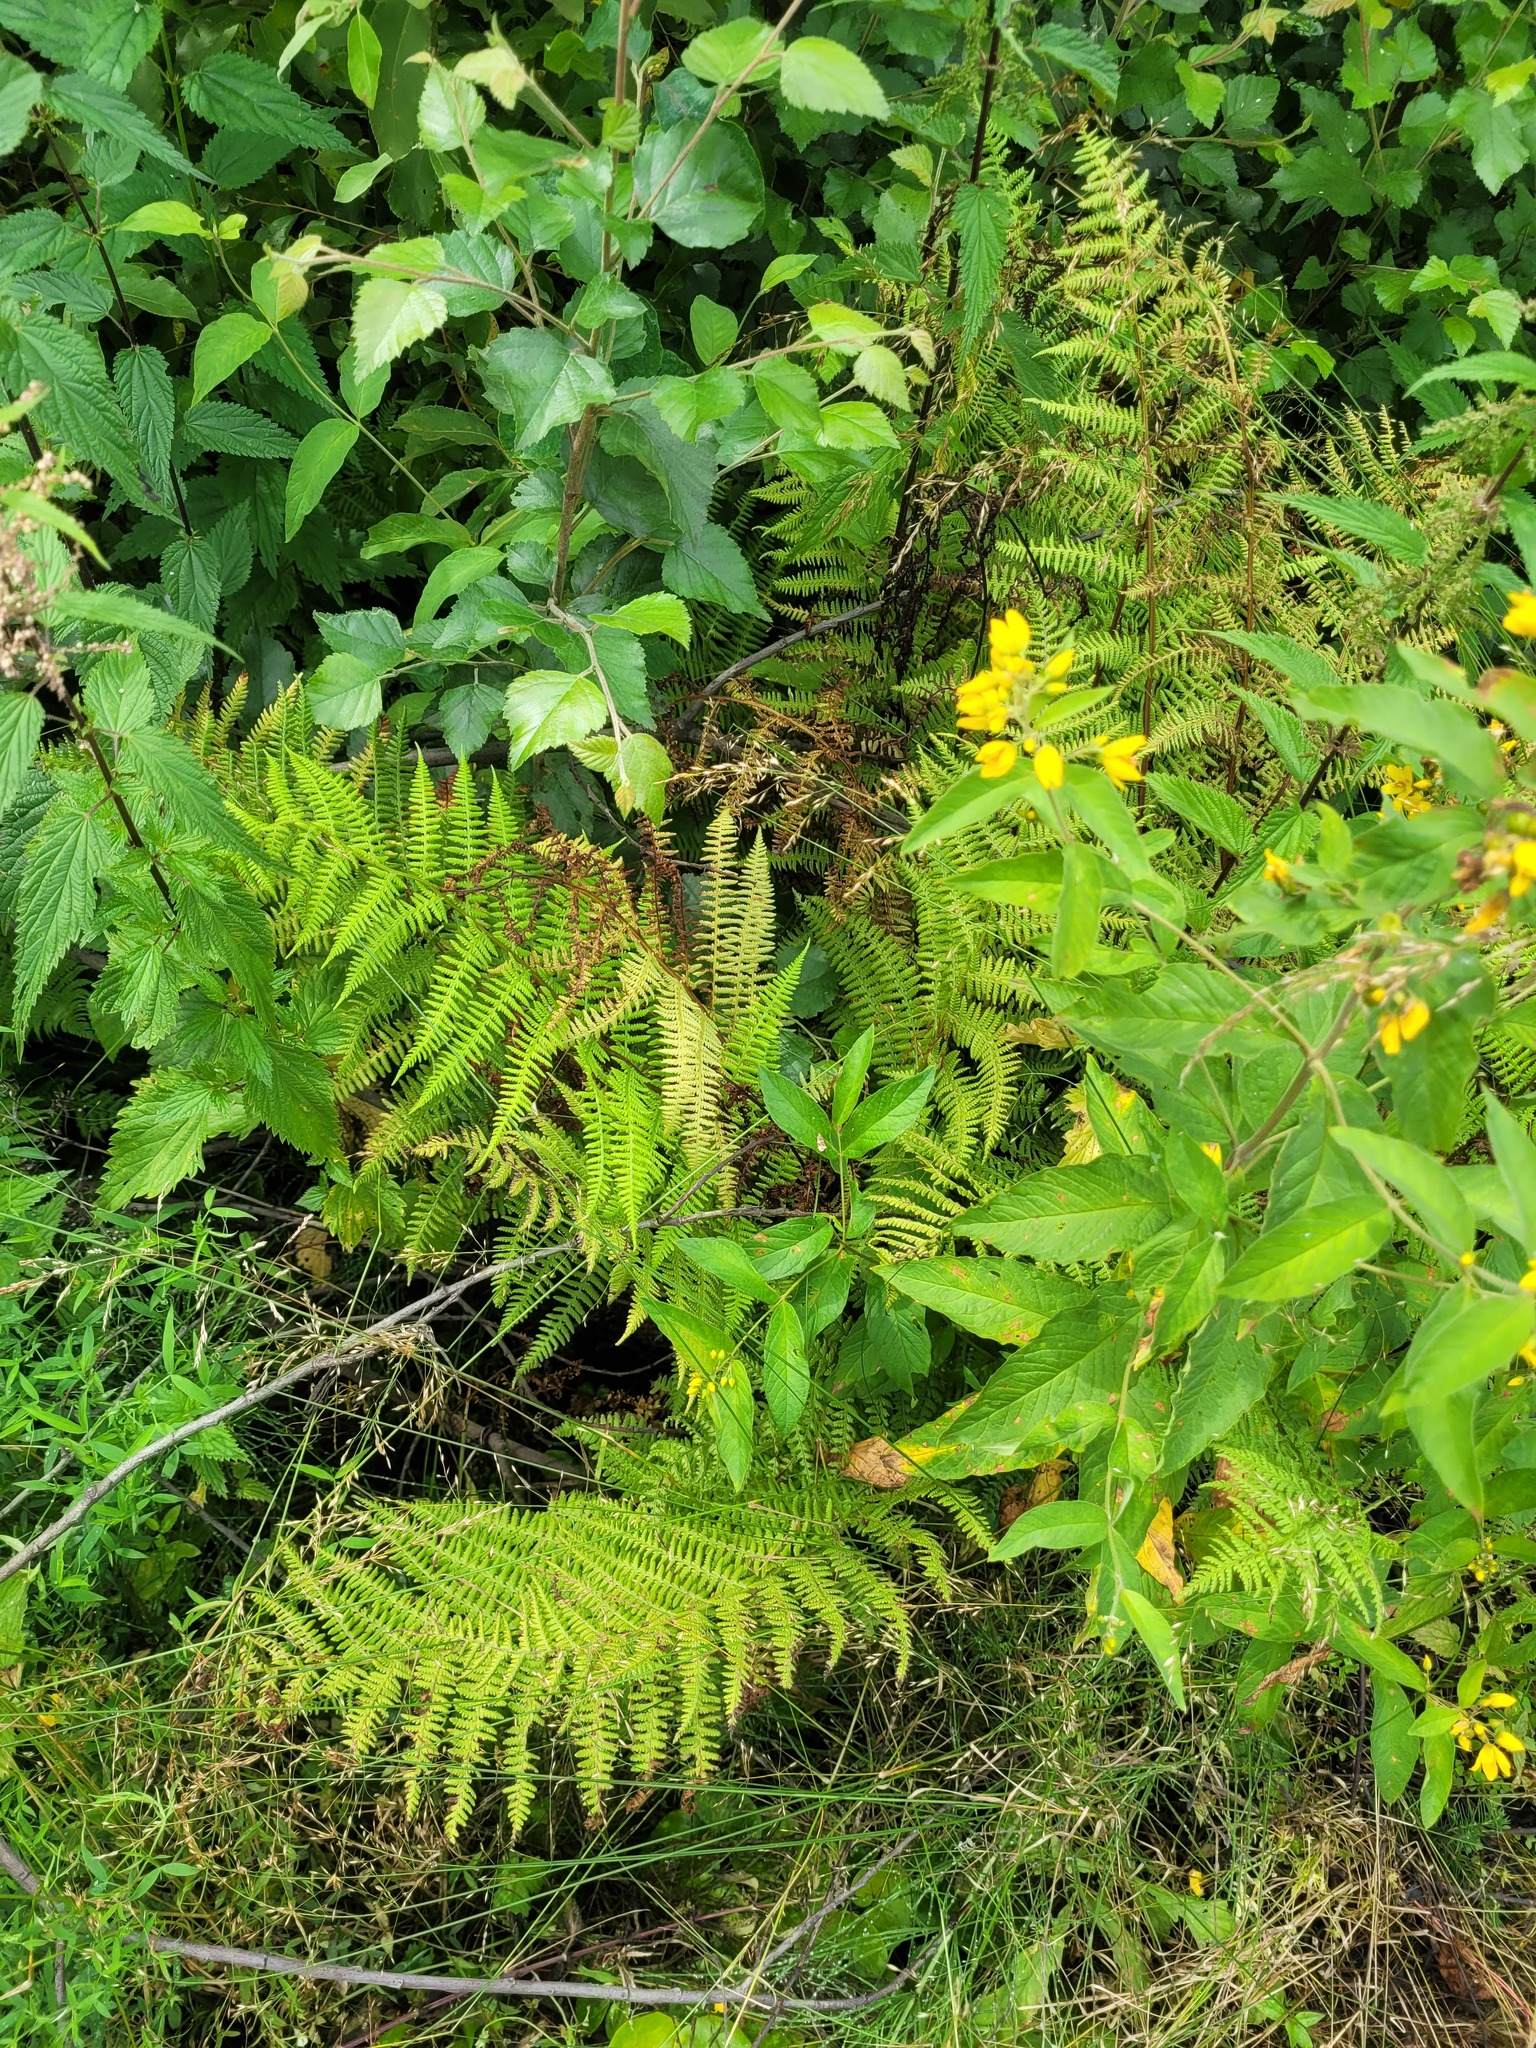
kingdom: Plantae
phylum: Tracheophyta
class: Polypodiopsida
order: Polypodiales
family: Athyriaceae
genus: Athyrium
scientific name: Athyrium filix-femina
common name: Lady fern
